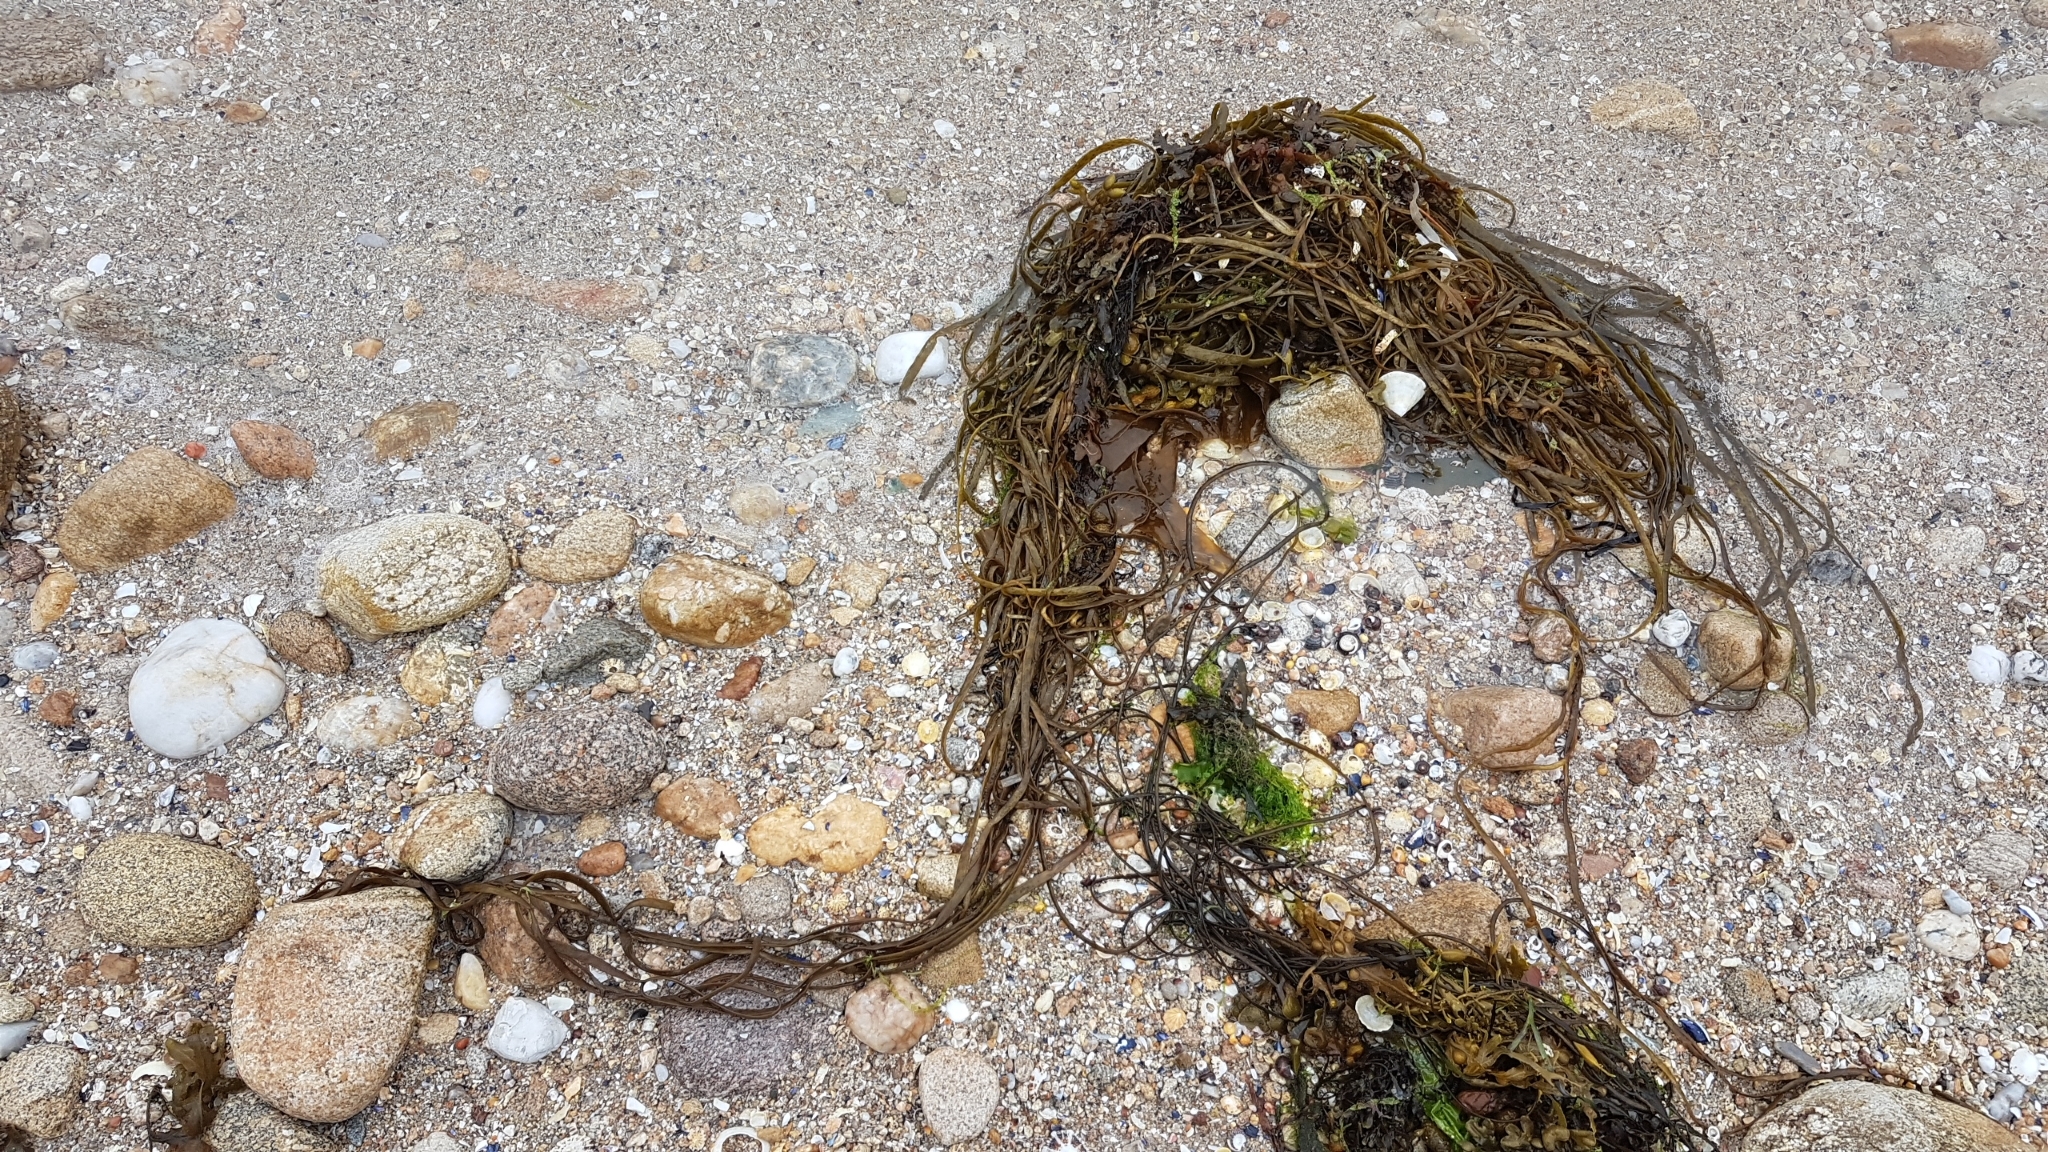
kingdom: Chromista
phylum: Ochrophyta
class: Phaeophyceae
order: Fucales
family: Himanthaliaceae
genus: Himanthalia
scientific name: Himanthalia elongata
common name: Sea-thong
